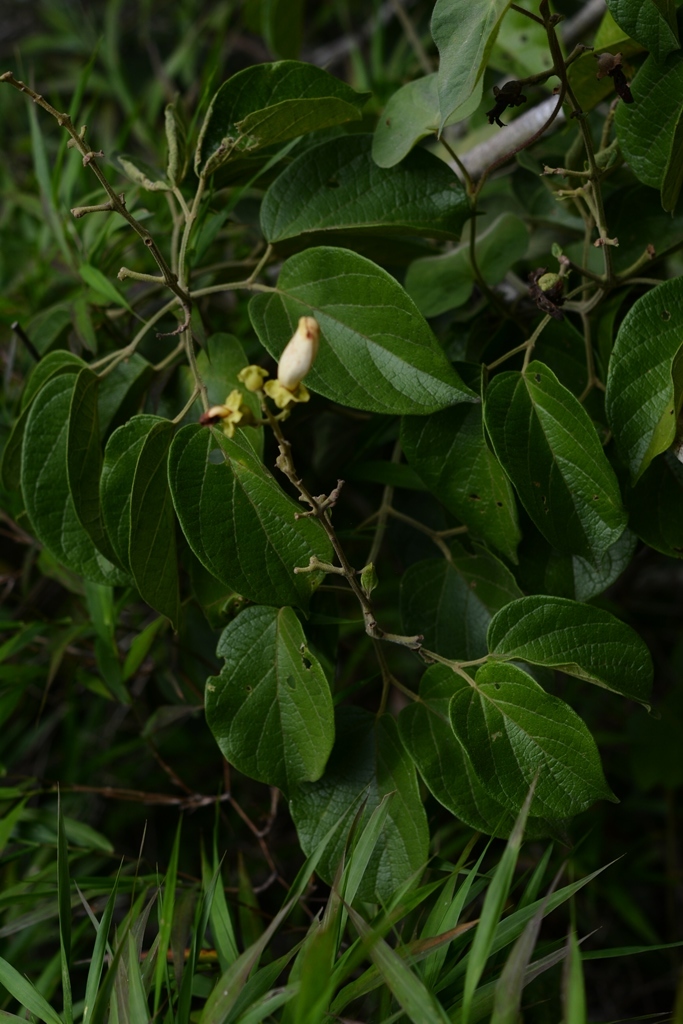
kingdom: Plantae
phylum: Tracheophyta
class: Magnoliopsida
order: Lamiales
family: Bignoniaceae
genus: Amphilophium
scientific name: Amphilophium paniculatum
